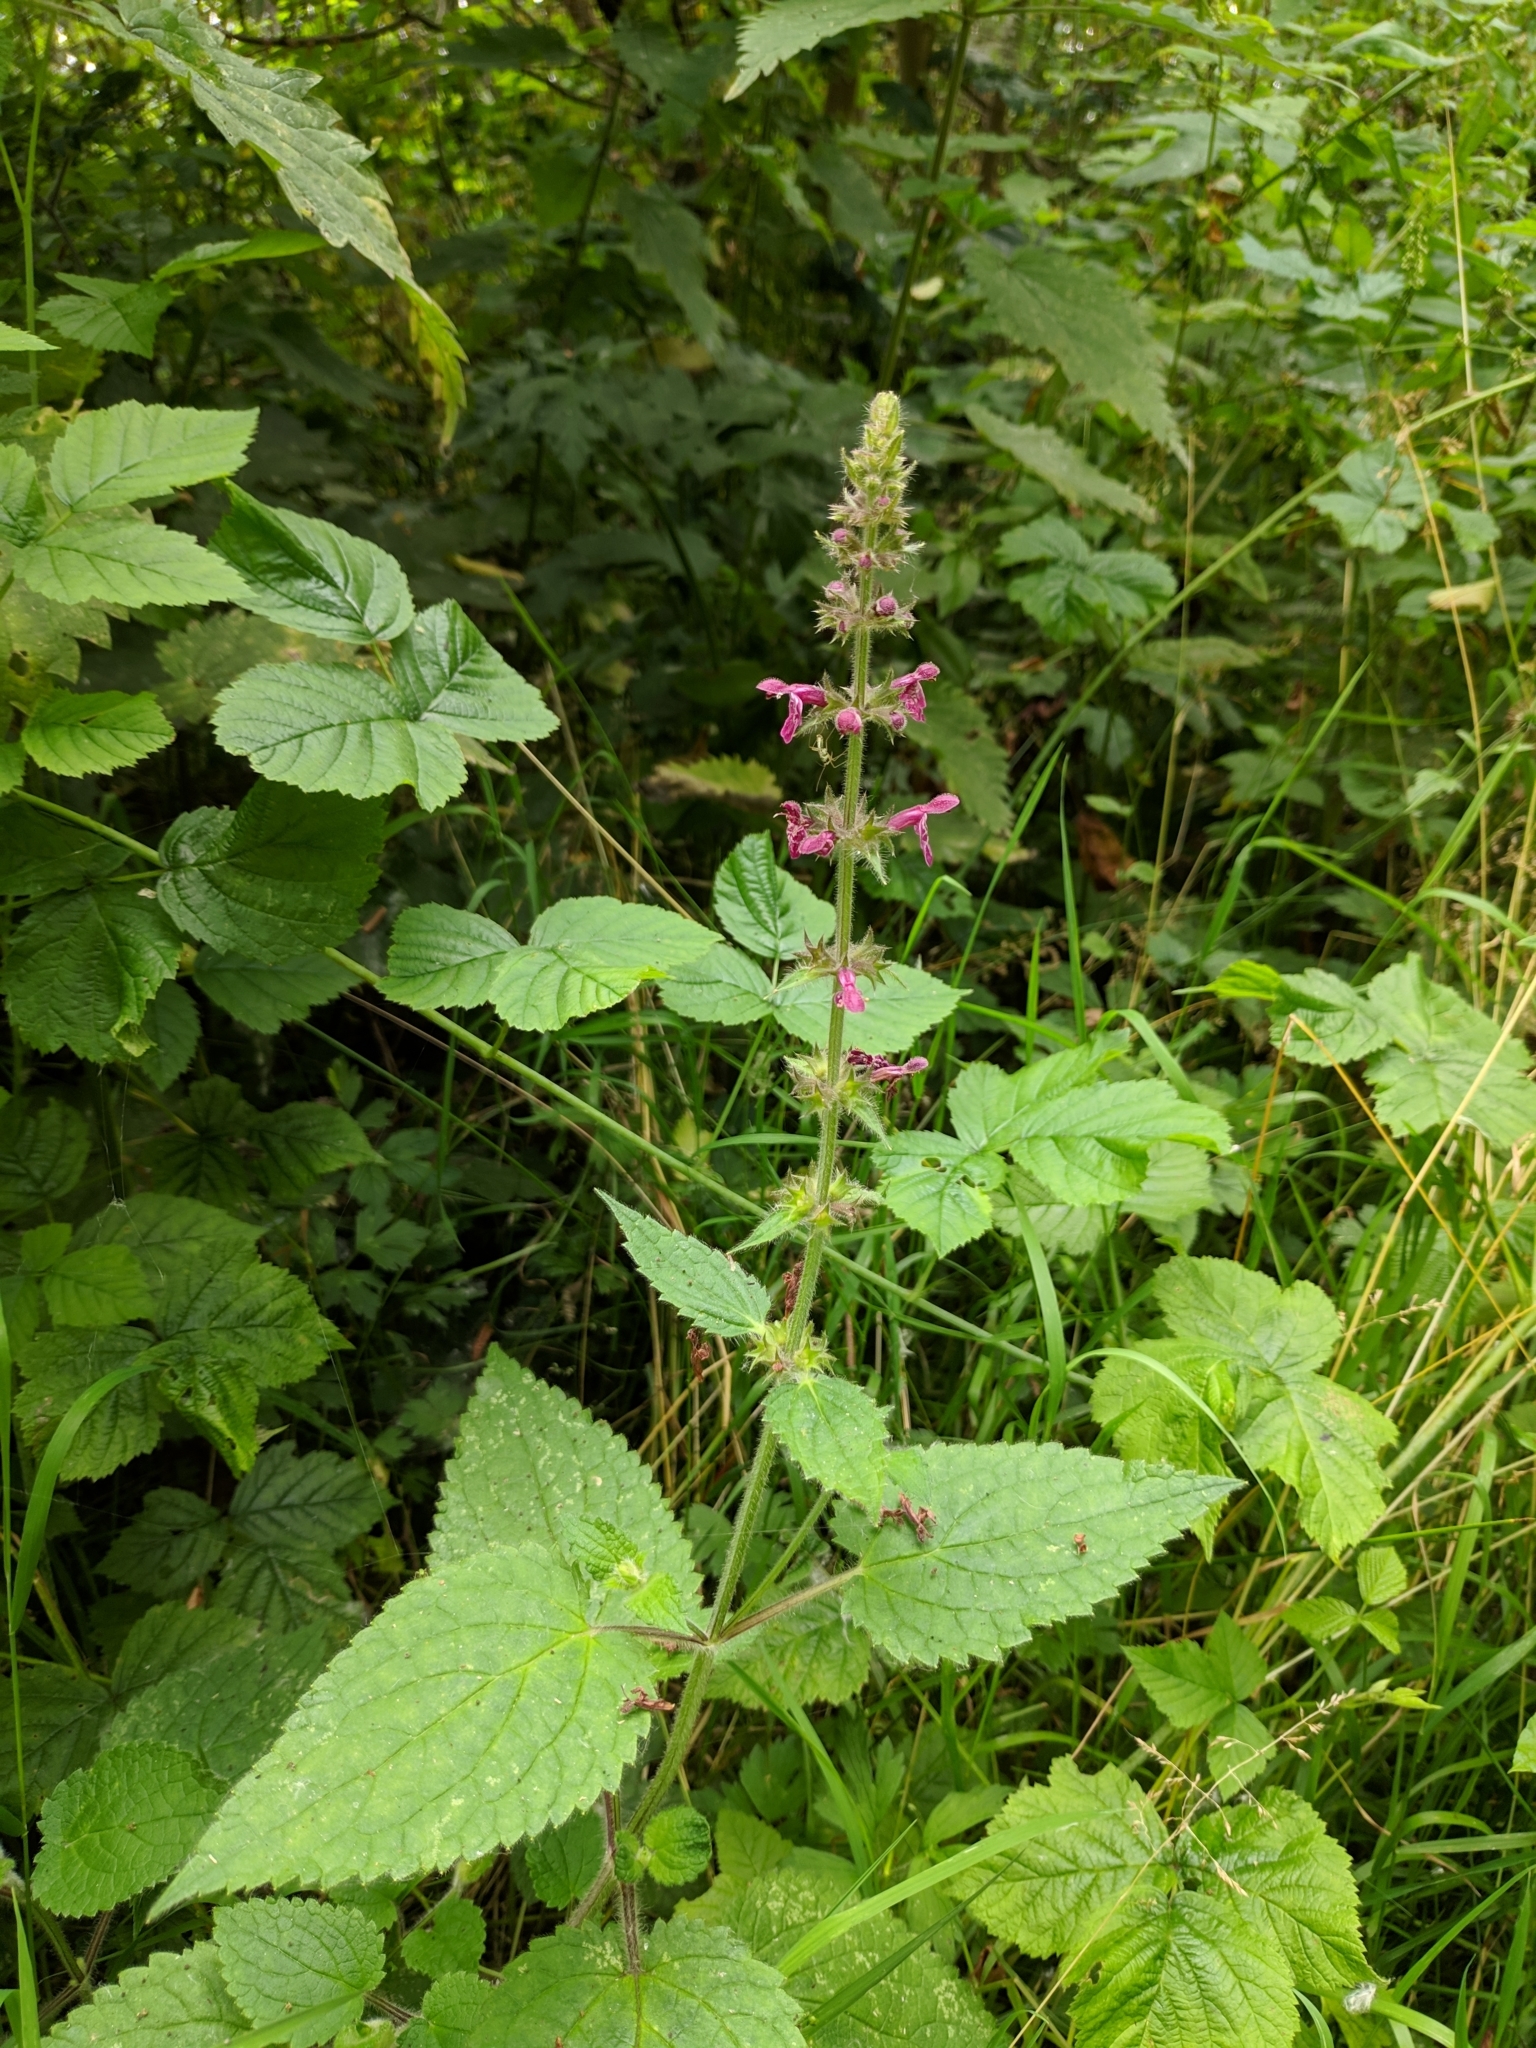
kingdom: Plantae
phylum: Tracheophyta
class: Magnoliopsida
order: Lamiales
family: Lamiaceae
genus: Stachys
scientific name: Stachys sylvatica
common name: Hedge woundwort
